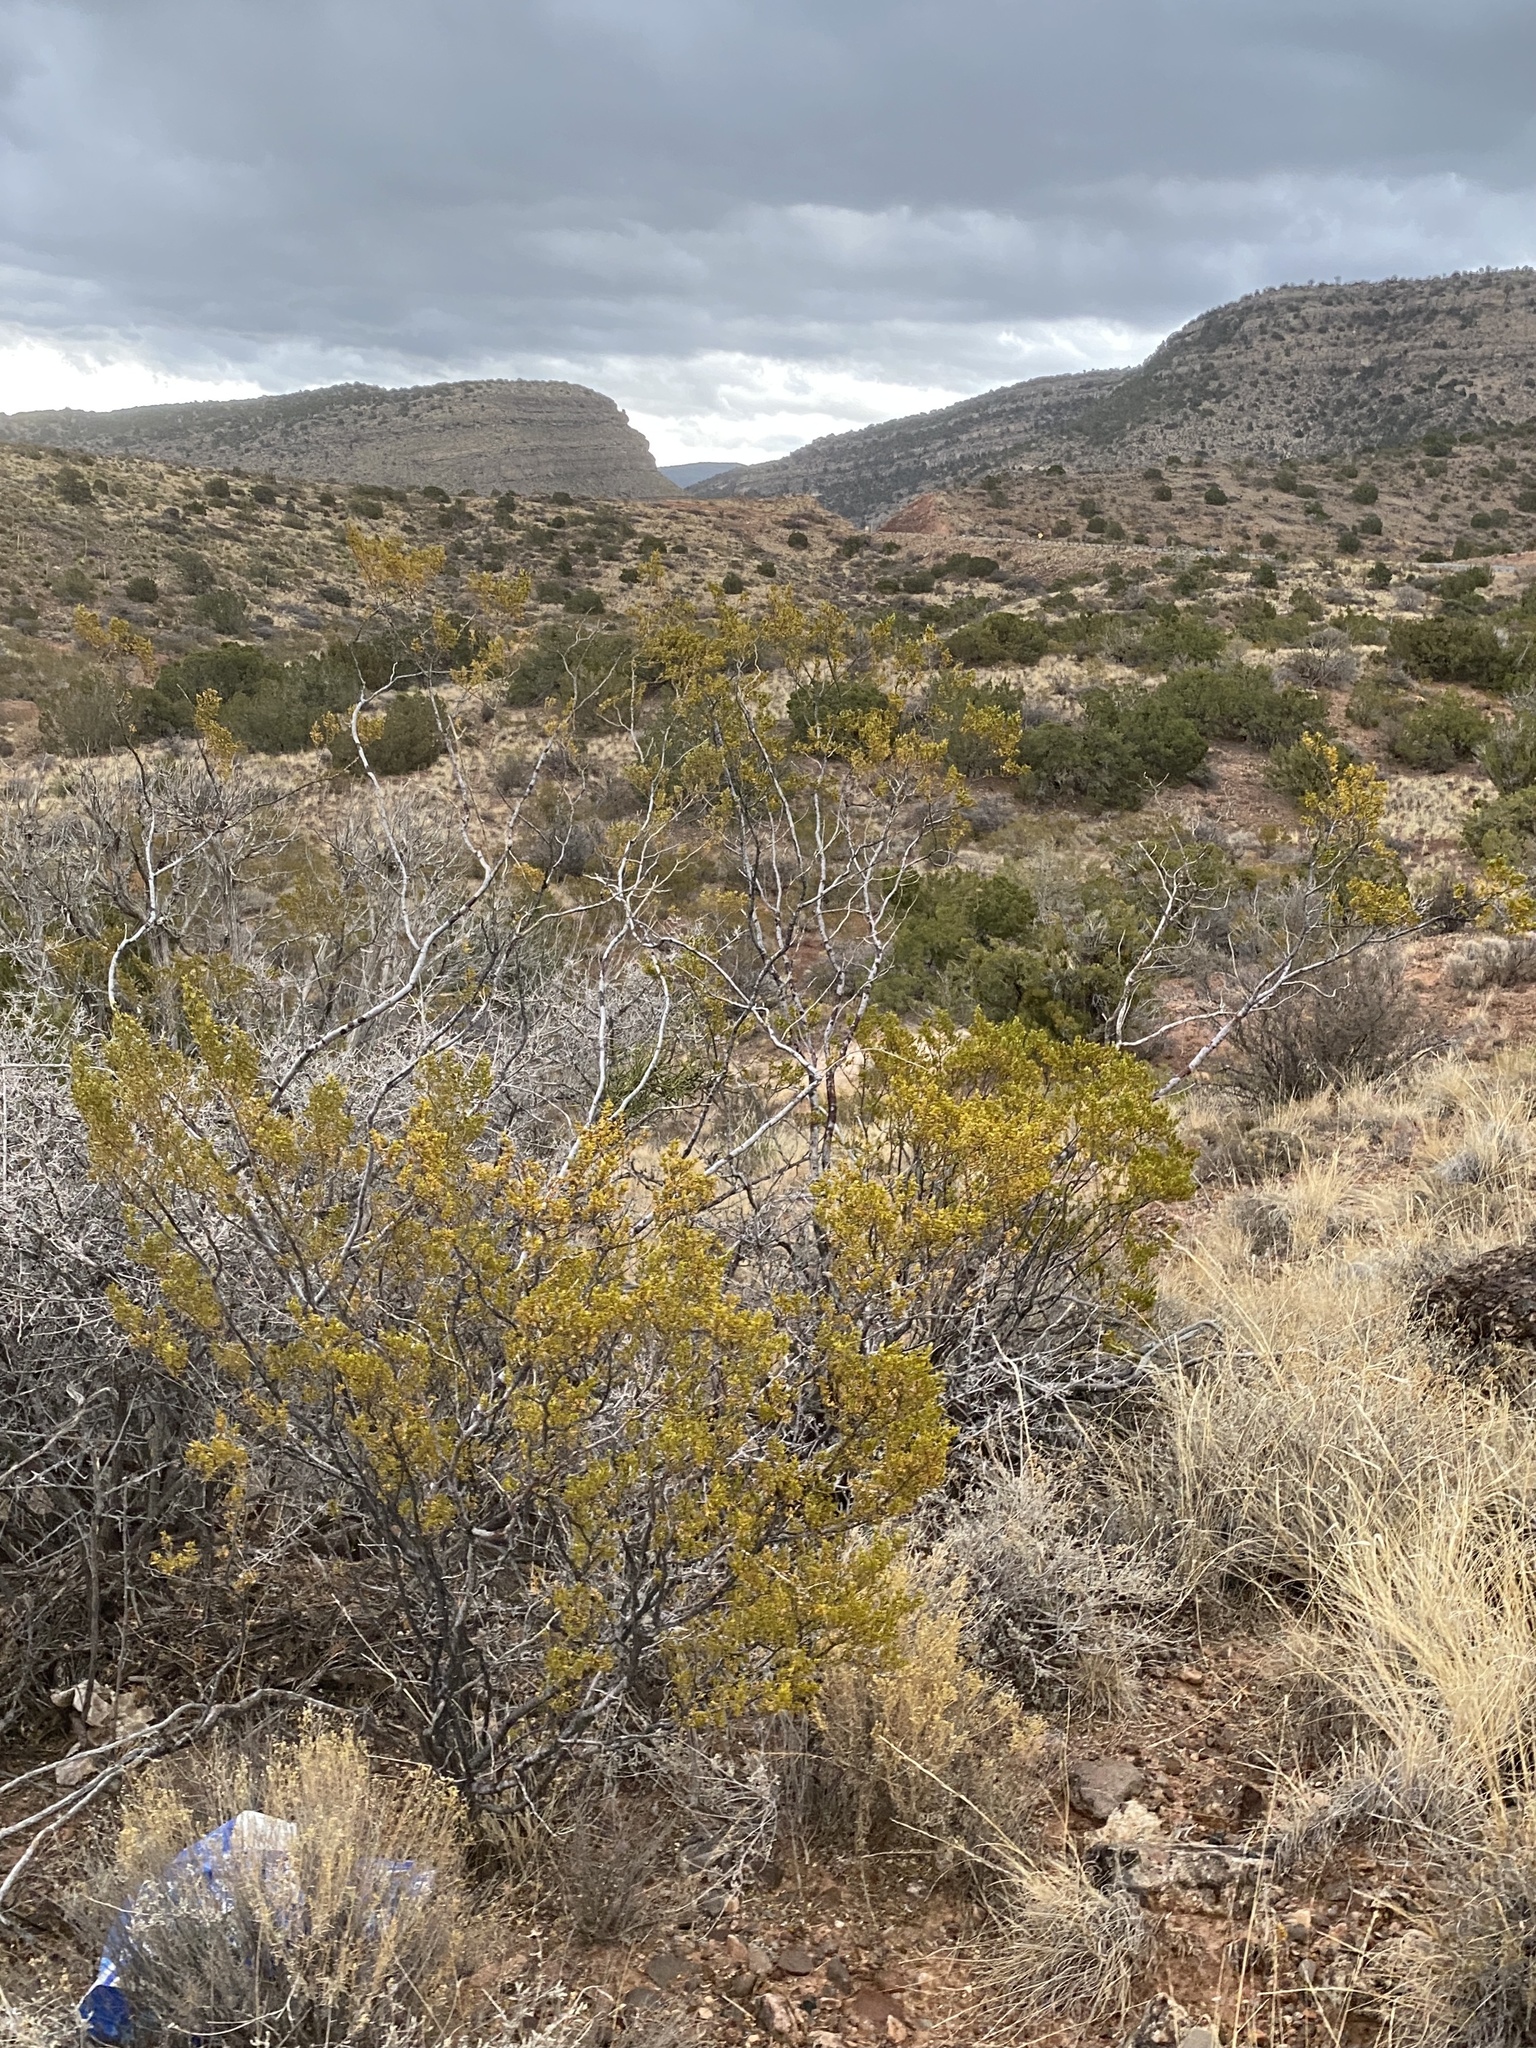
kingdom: Plantae
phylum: Tracheophyta
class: Magnoliopsida
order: Zygophyllales
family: Zygophyllaceae
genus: Larrea
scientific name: Larrea tridentata
